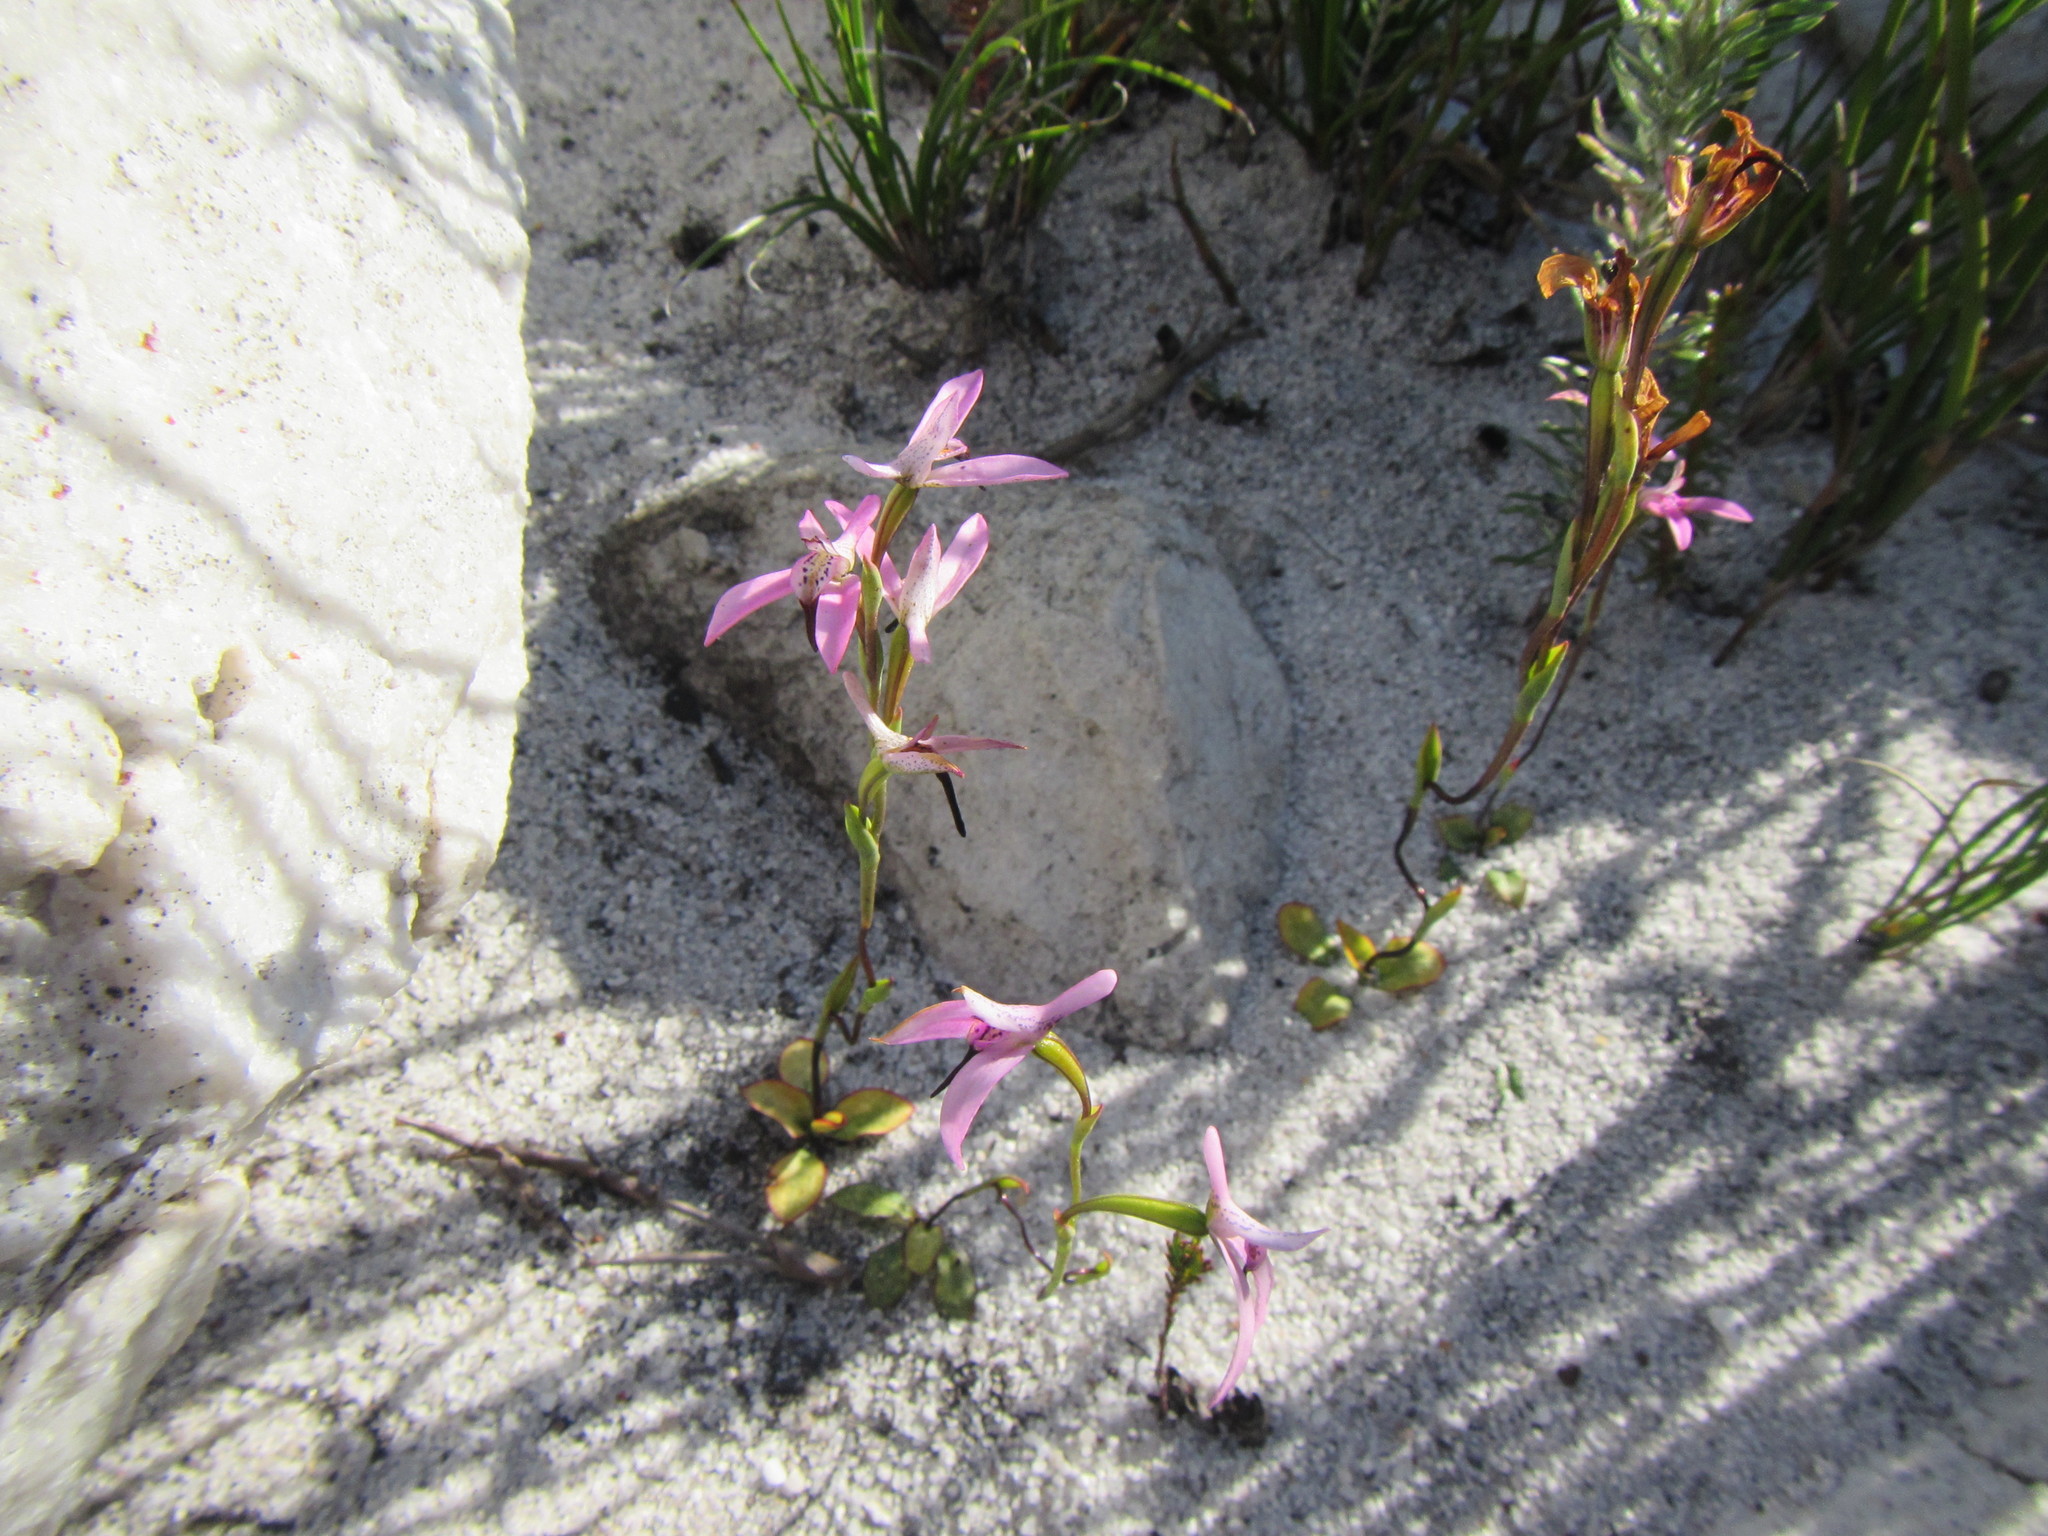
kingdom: Plantae
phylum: Tracheophyta
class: Liliopsida
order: Asparagales
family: Orchidaceae
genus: Disa
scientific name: Disa obliqua
